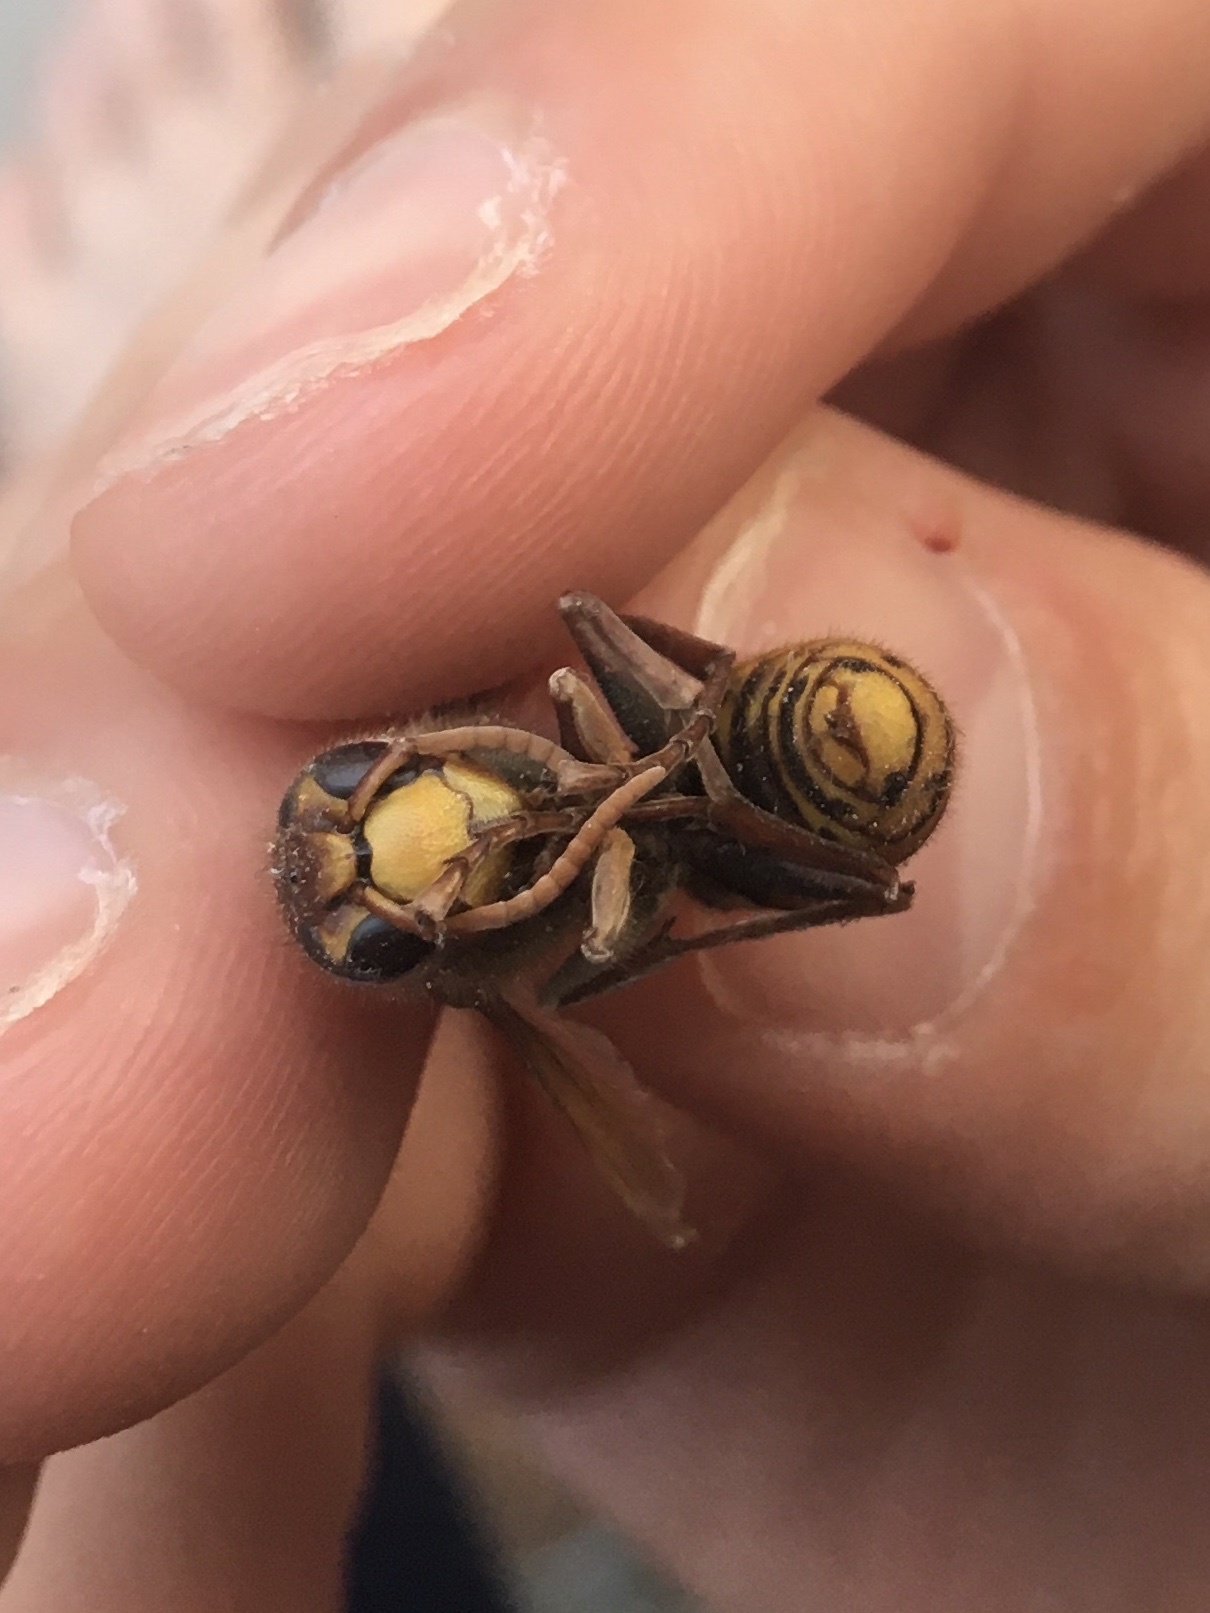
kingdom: Animalia
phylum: Arthropoda
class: Insecta
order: Hymenoptera
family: Vespidae
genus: Vespa
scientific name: Vespa crabro
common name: Hornet
